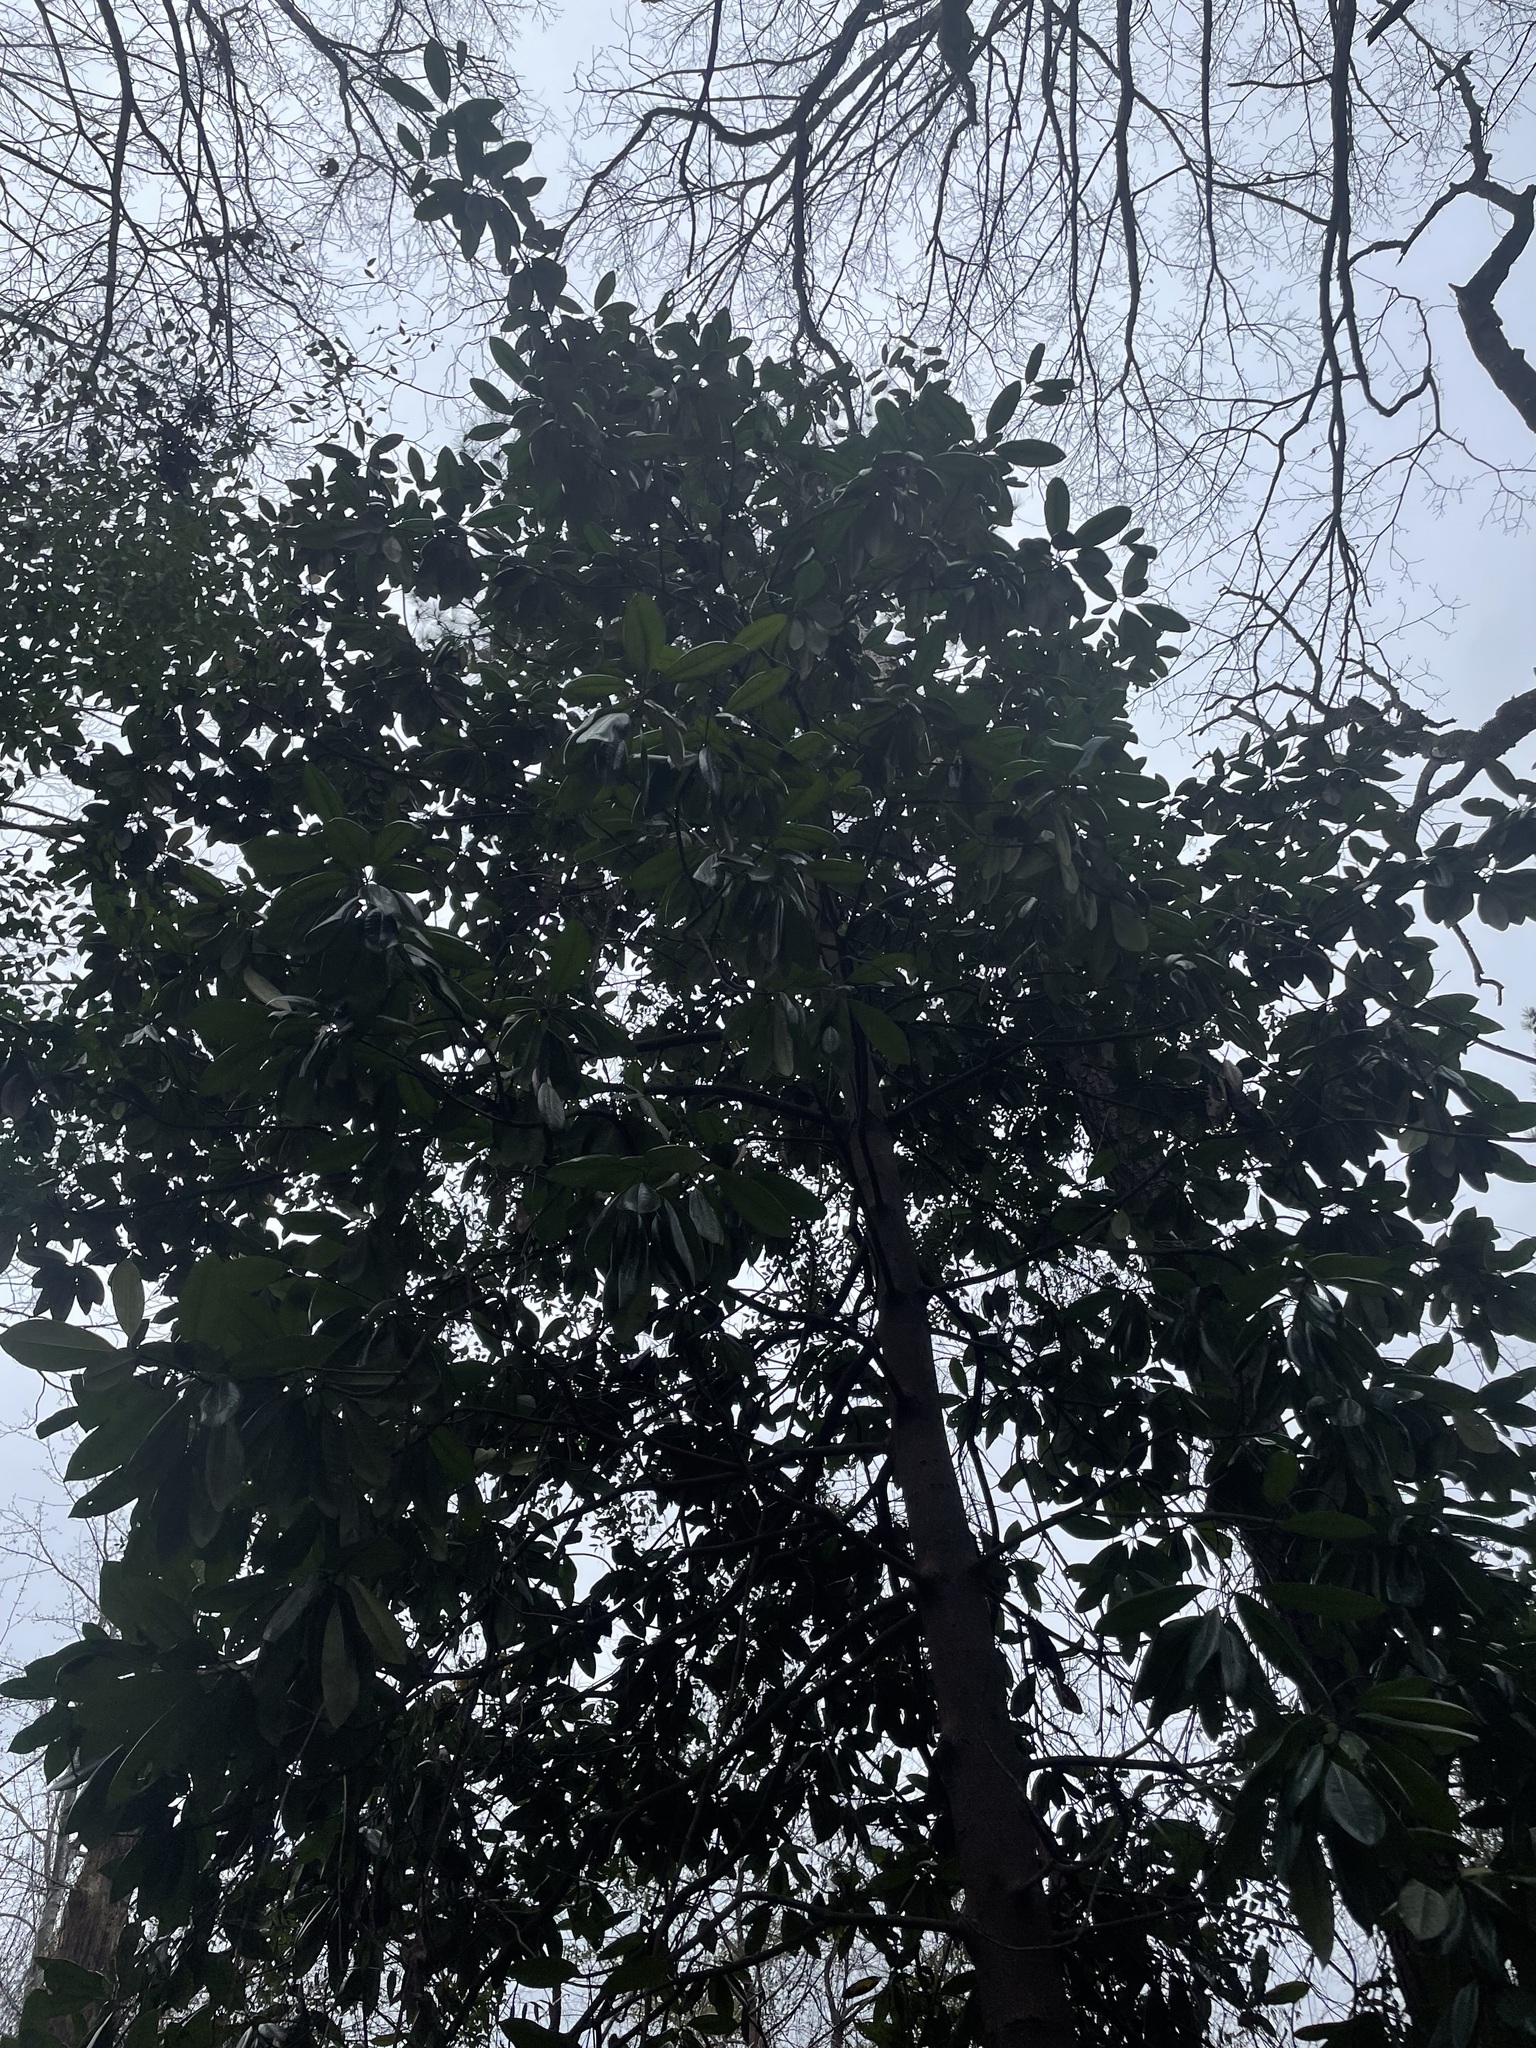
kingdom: Plantae
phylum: Tracheophyta
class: Magnoliopsida
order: Magnoliales
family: Magnoliaceae
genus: Magnolia
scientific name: Magnolia grandiflora
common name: Southern magnolia
